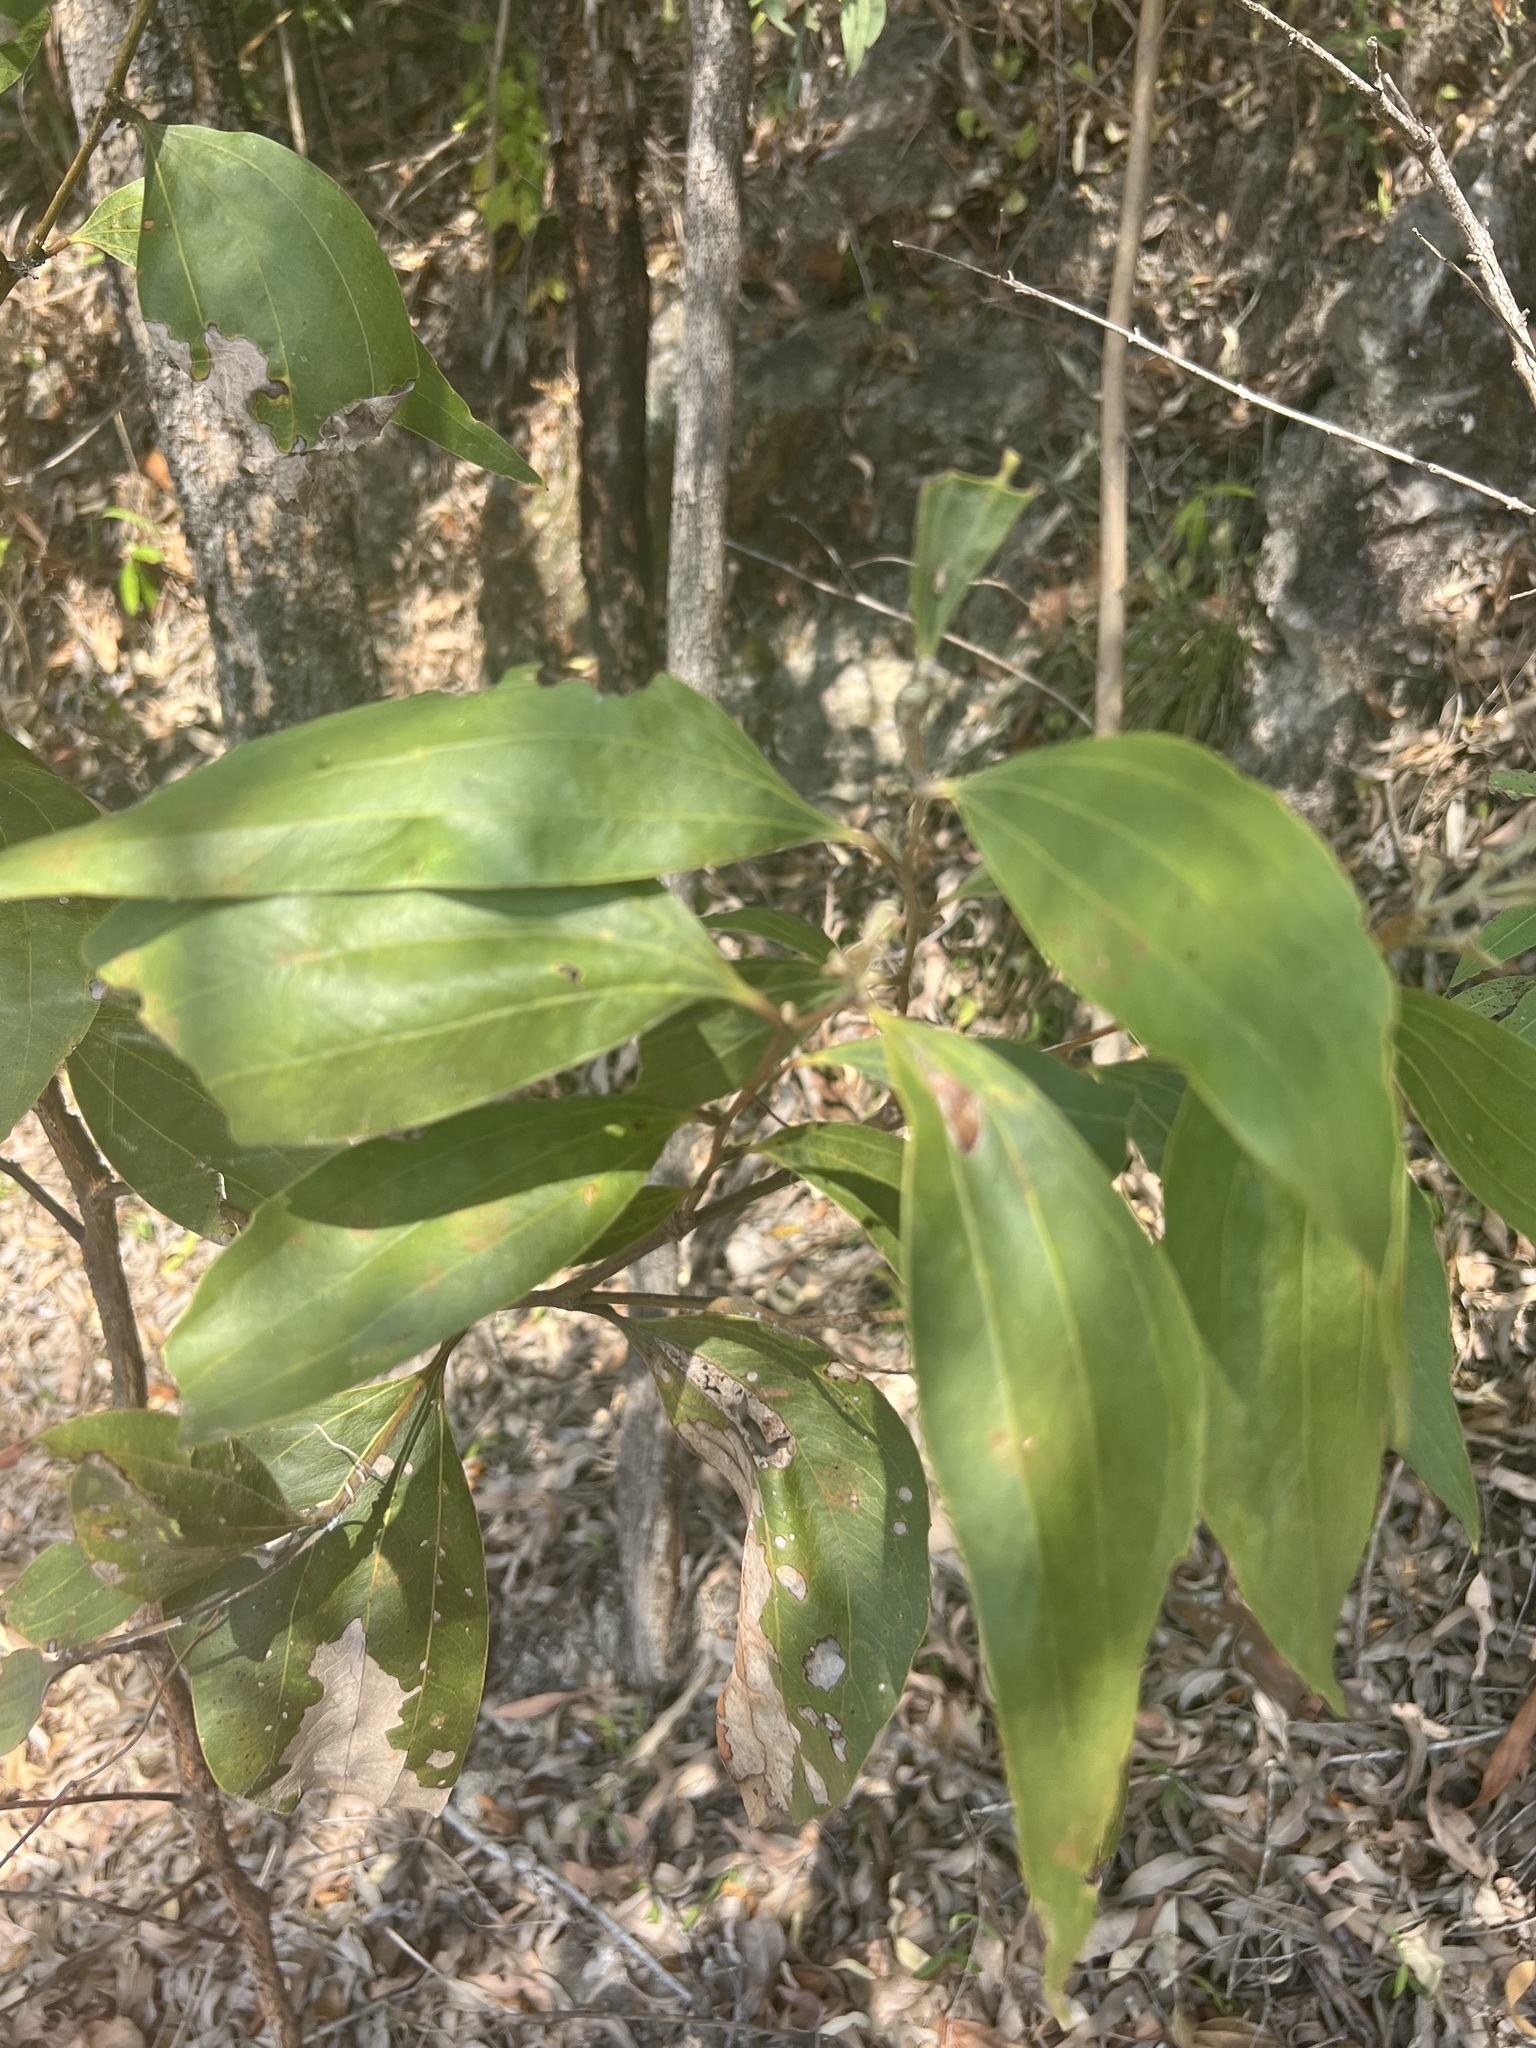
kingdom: Plantae
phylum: Tracheophyta
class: Magnoliopsida
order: Fabales
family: Fabaceae
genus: Acacia
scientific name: Acacia flavescens
